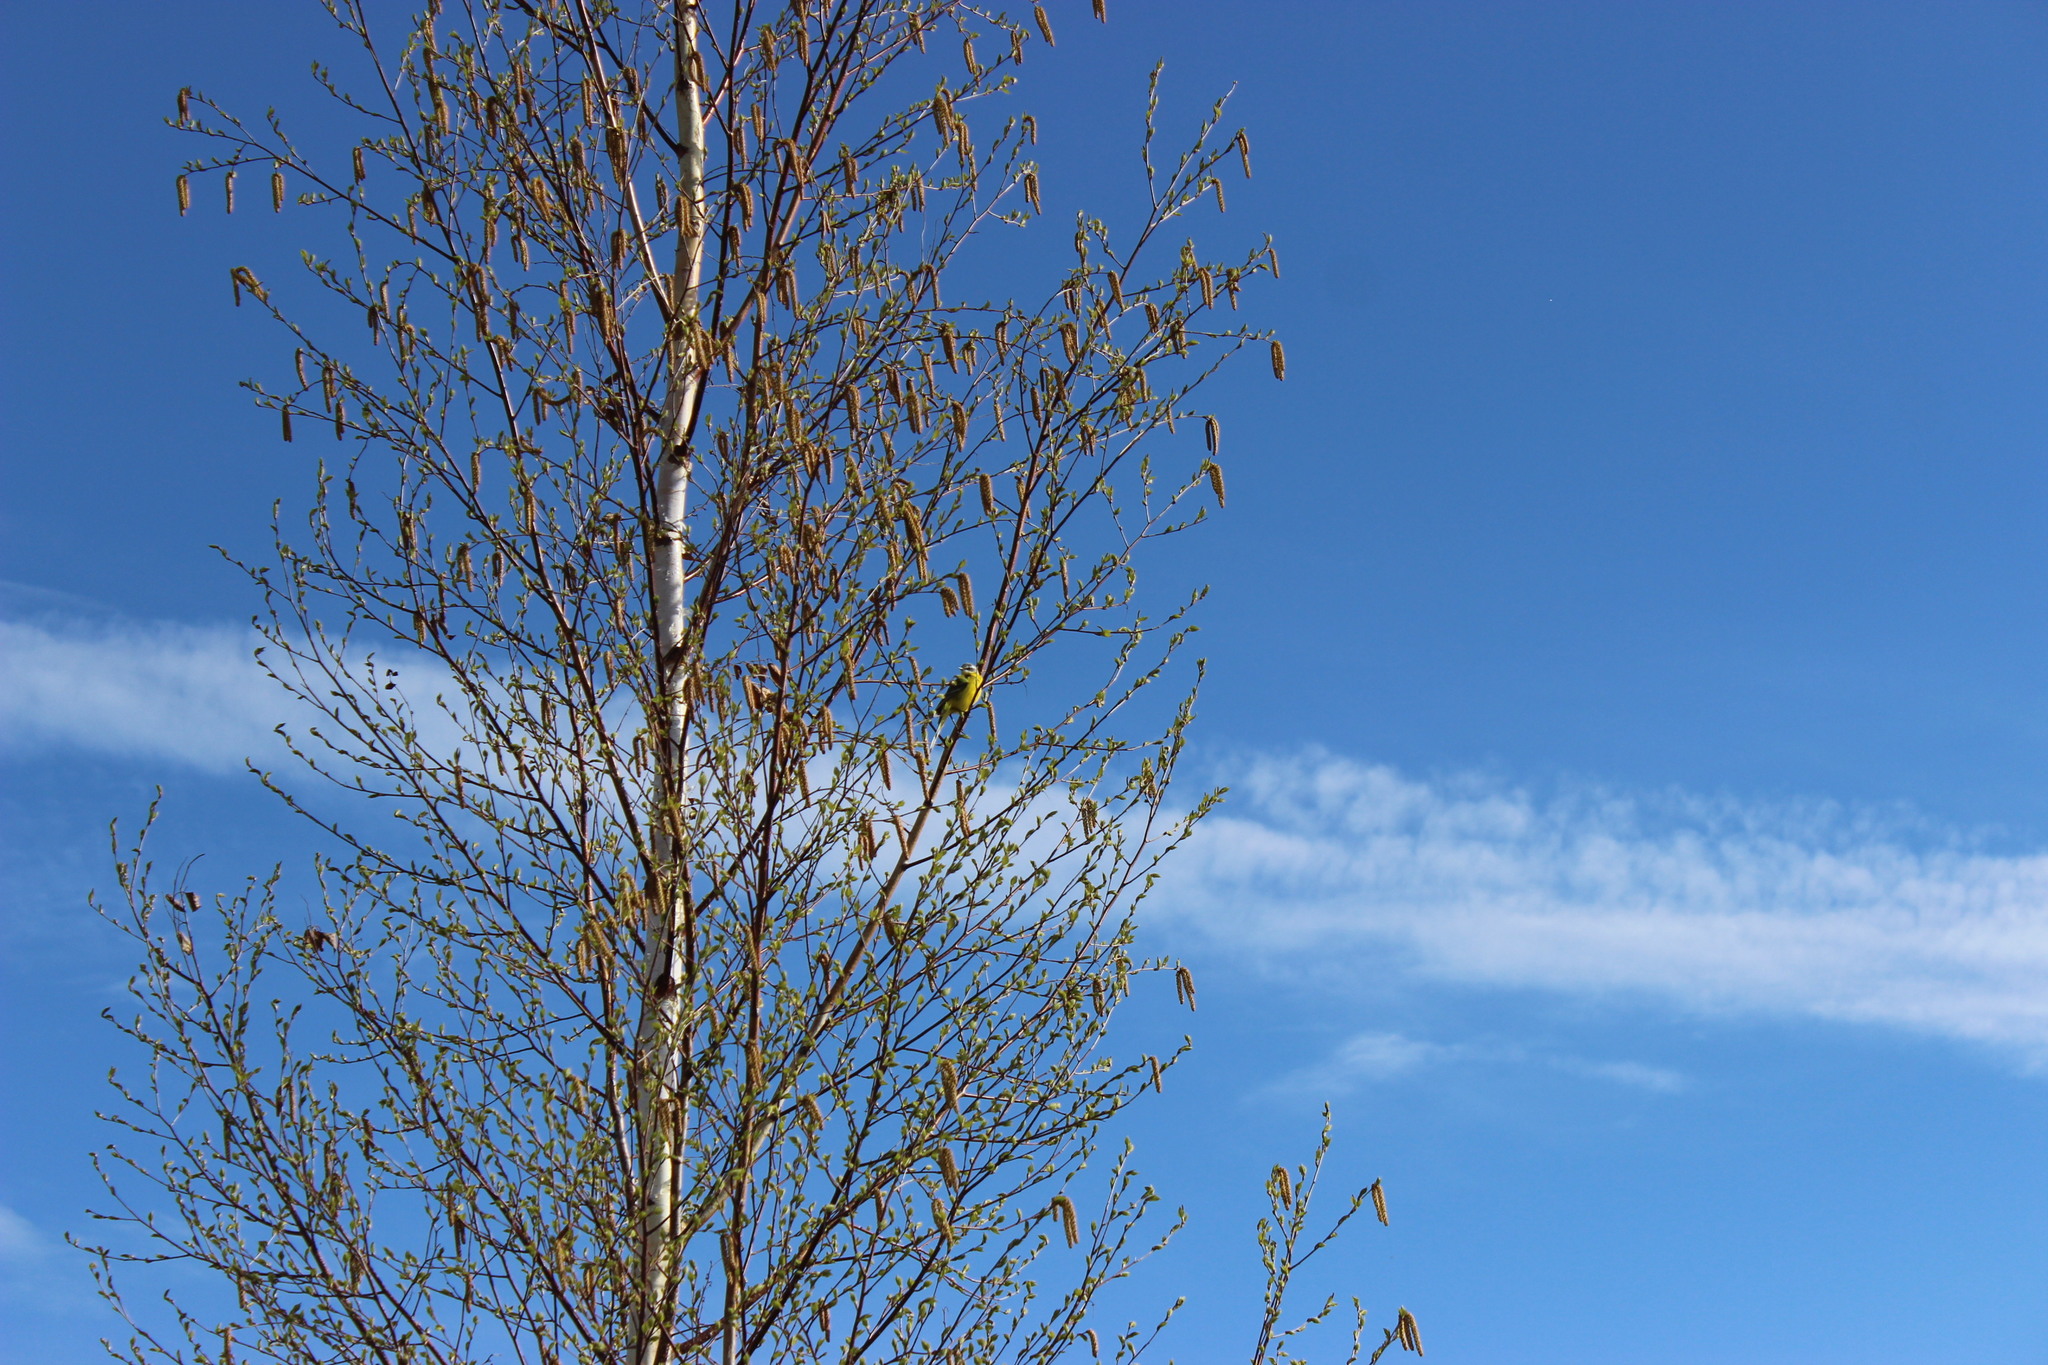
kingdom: Animalia
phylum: Chordata
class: Aves
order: Passeriformes
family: Motacillidae
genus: Motacilla
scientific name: Motacilla flava
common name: Western yellow wagtail
